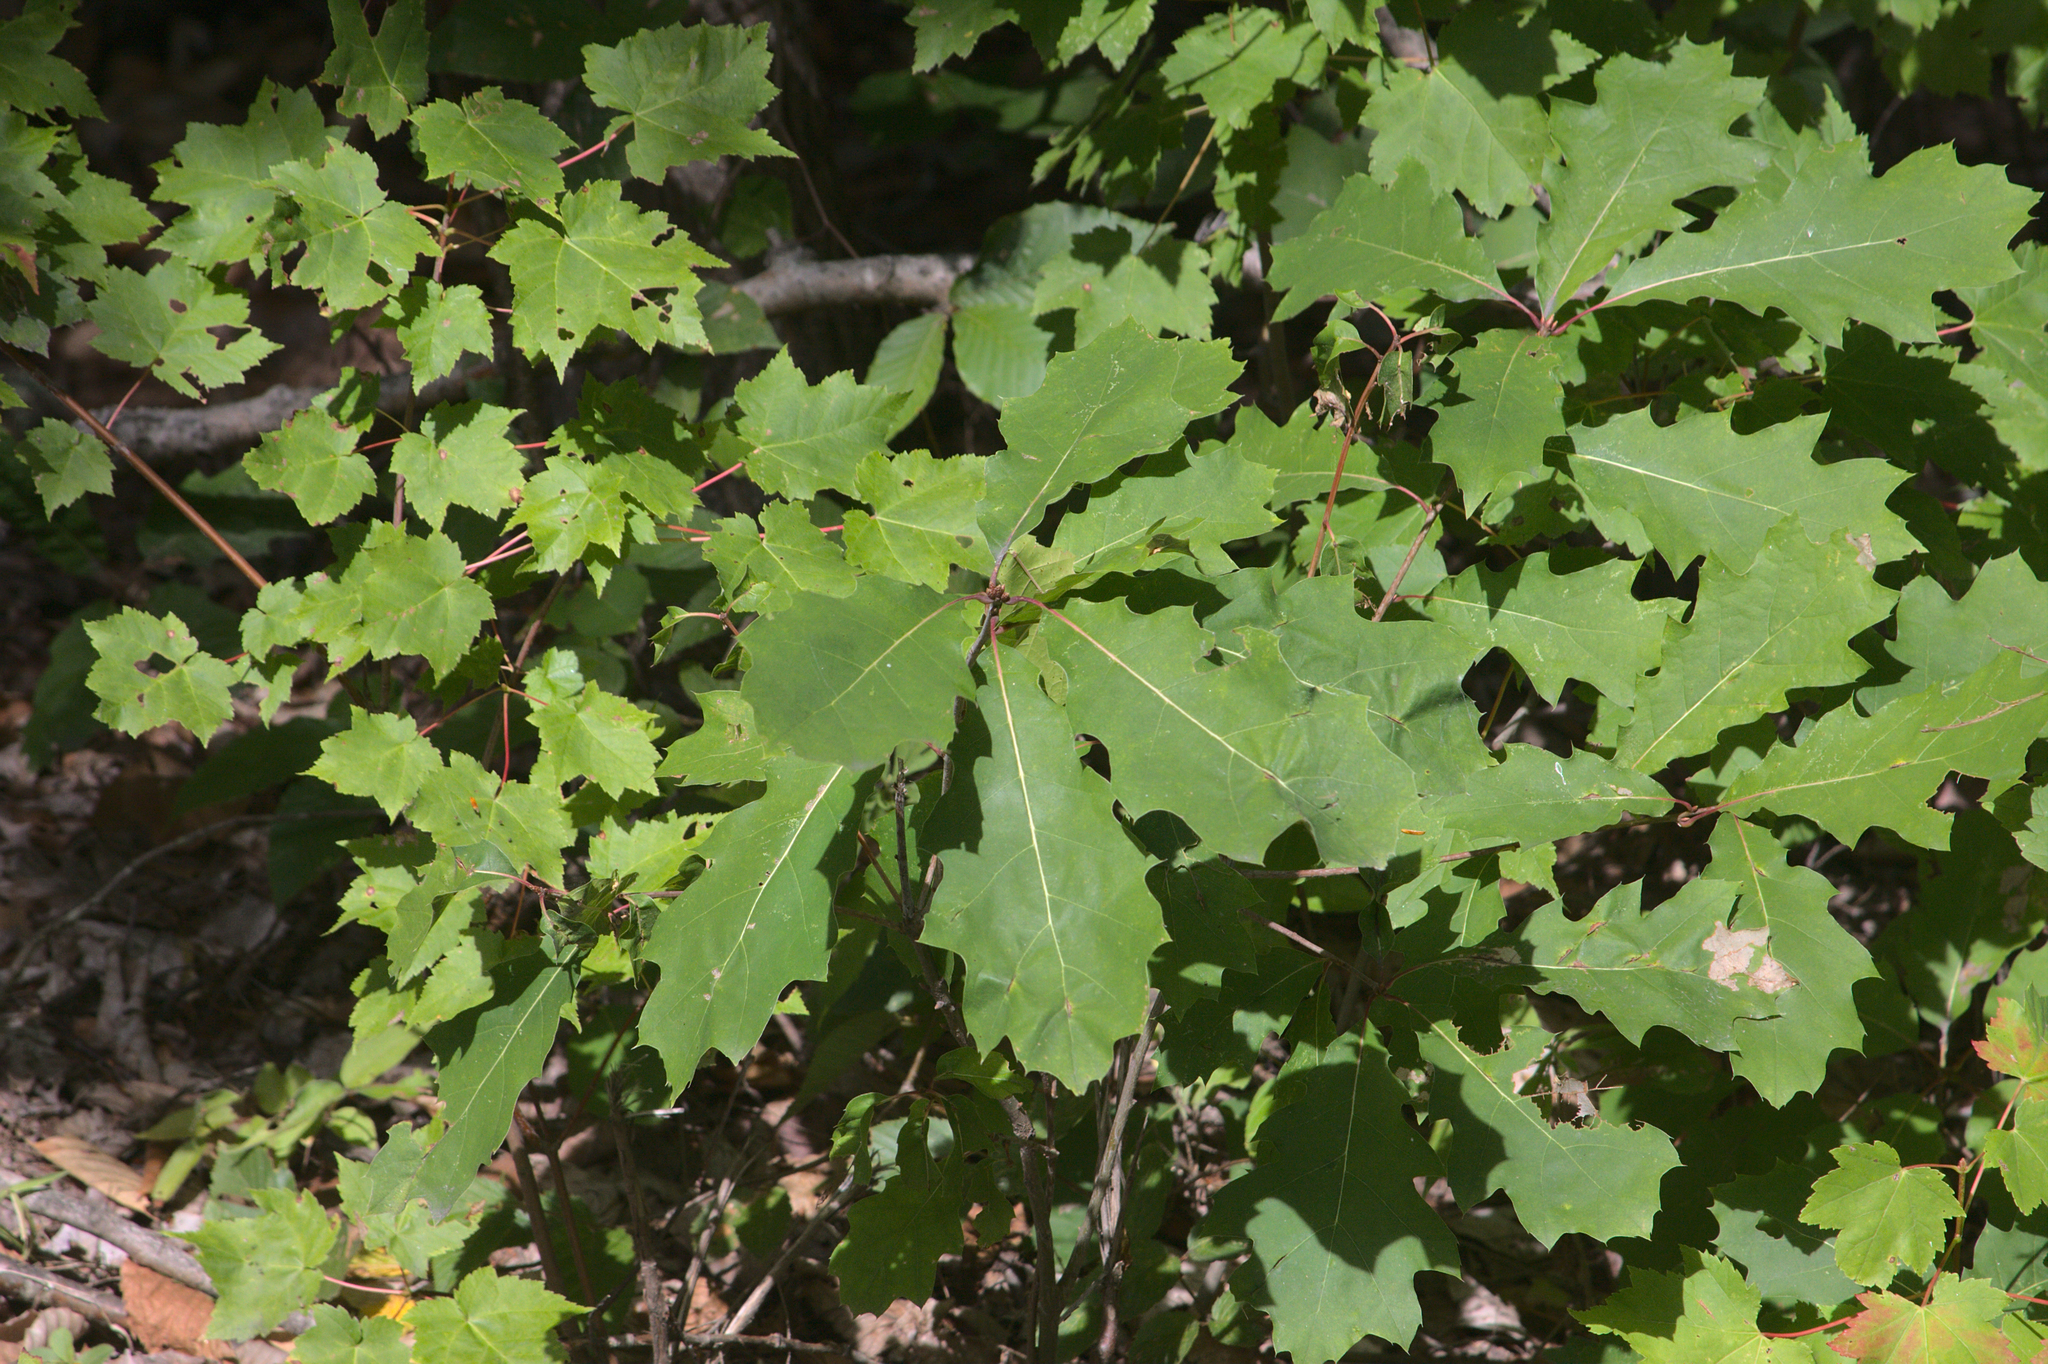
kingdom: Plantae
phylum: Tracheophyta
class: Magnoliopsida
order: Fagales
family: Fagaceae
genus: Quercus
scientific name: Quercus rubra
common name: Red oak
